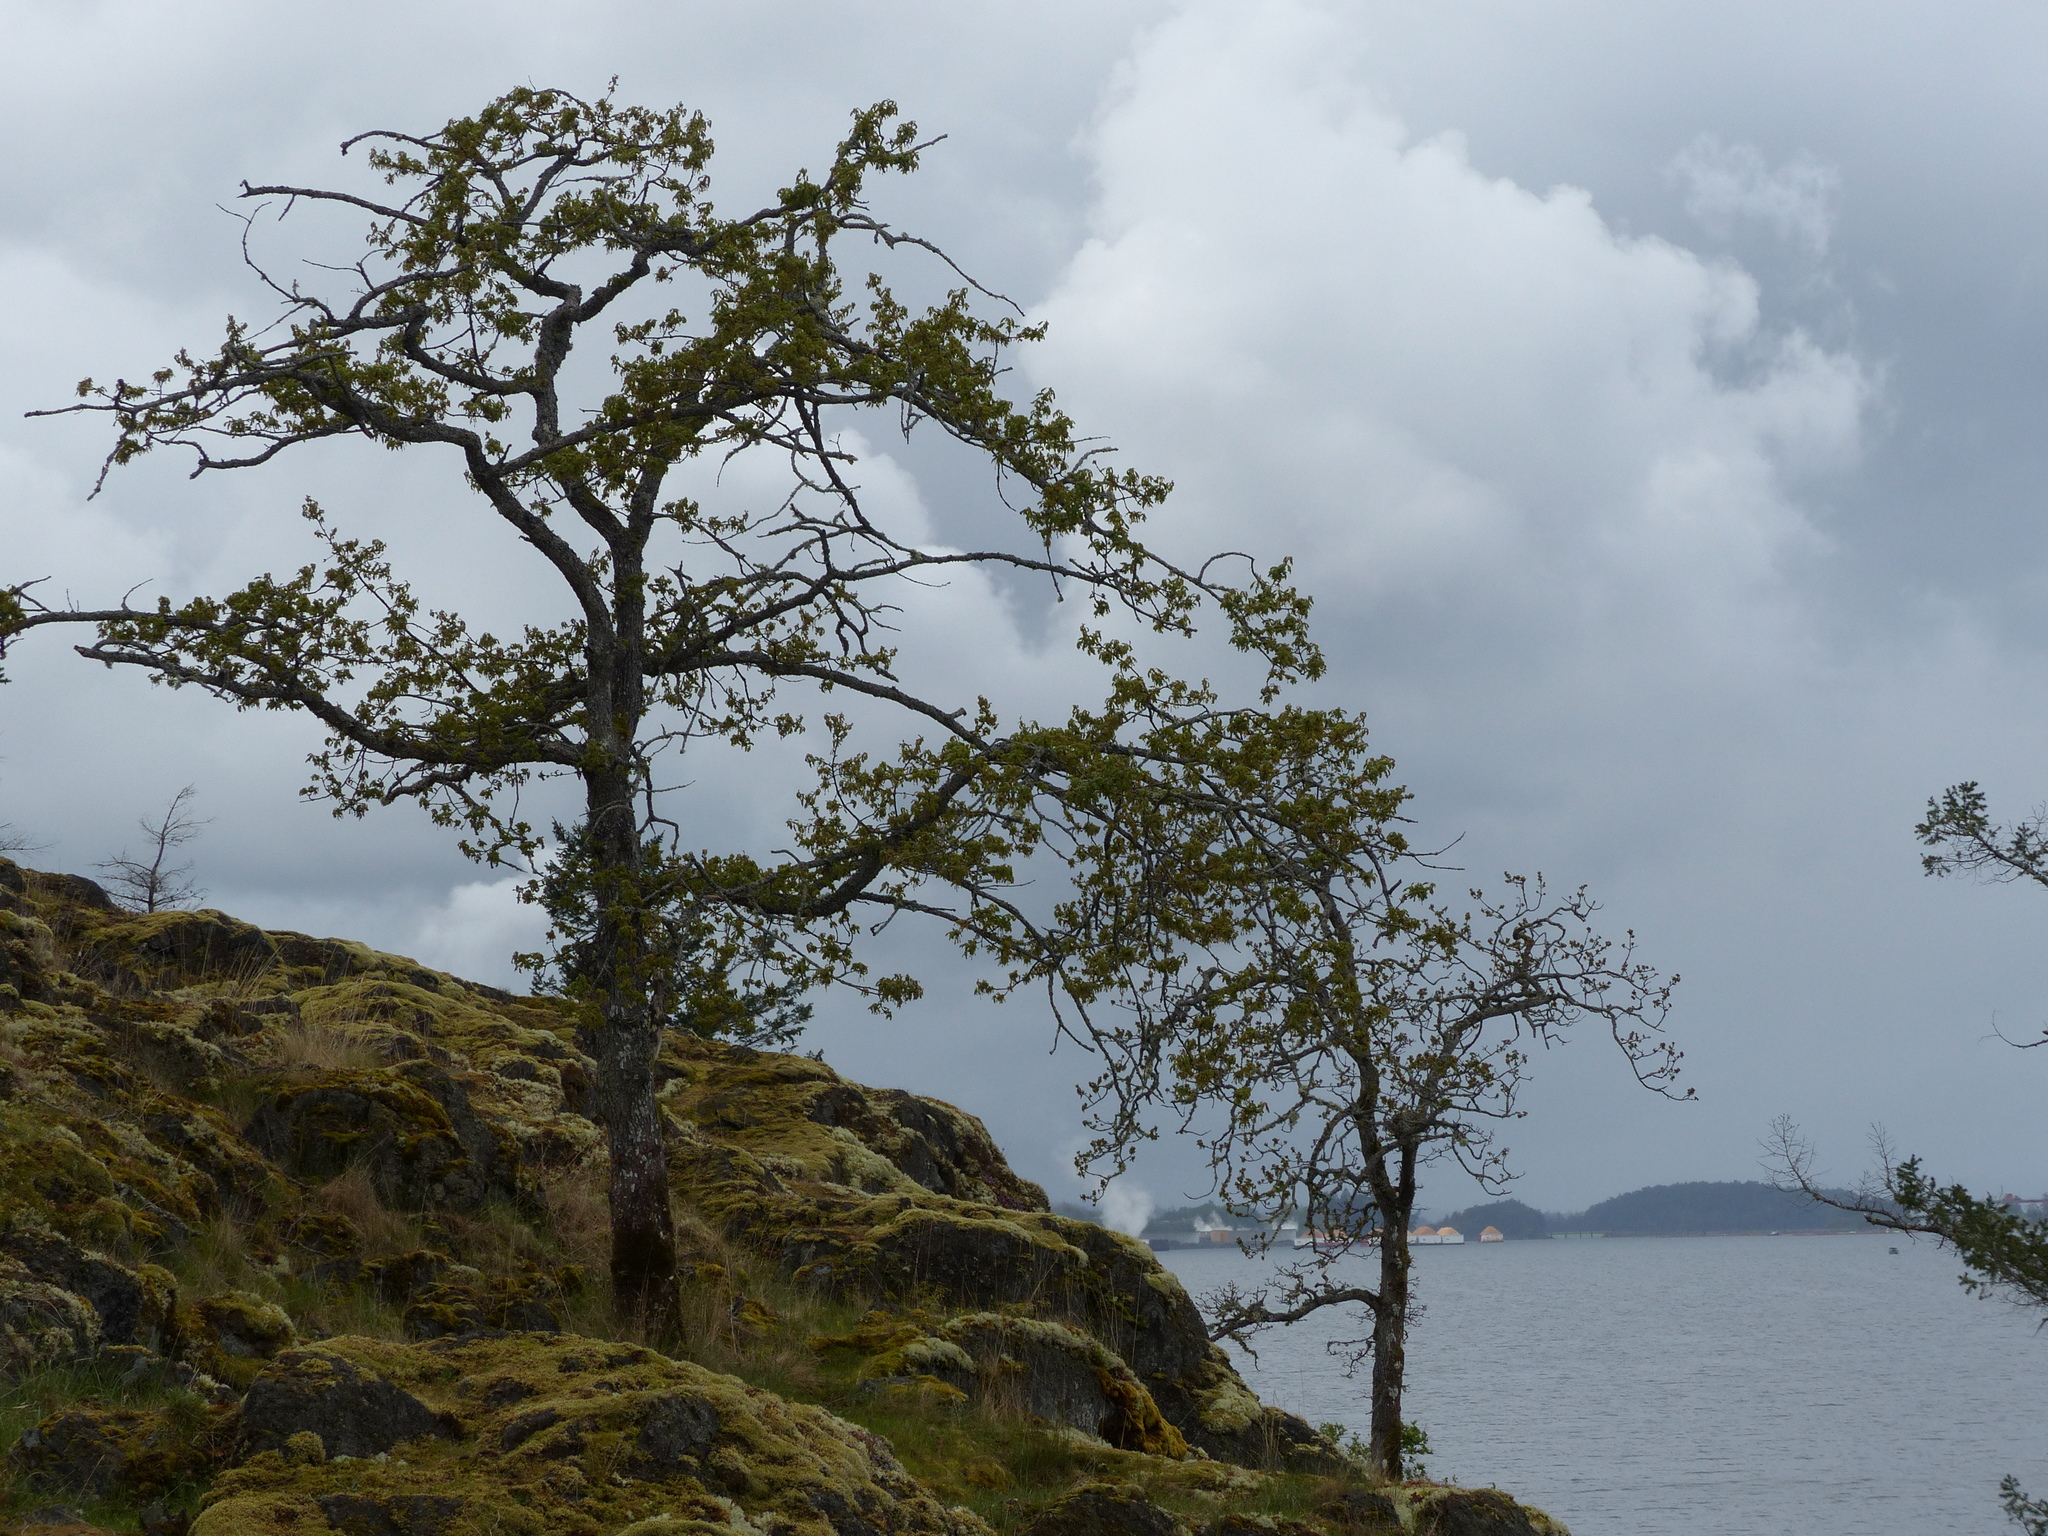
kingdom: Plantae
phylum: Tracheophyta
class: Magnoliopsida
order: Fagales
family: Fagaceae
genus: Quercus
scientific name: Quercus garryana
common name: Garry oak
